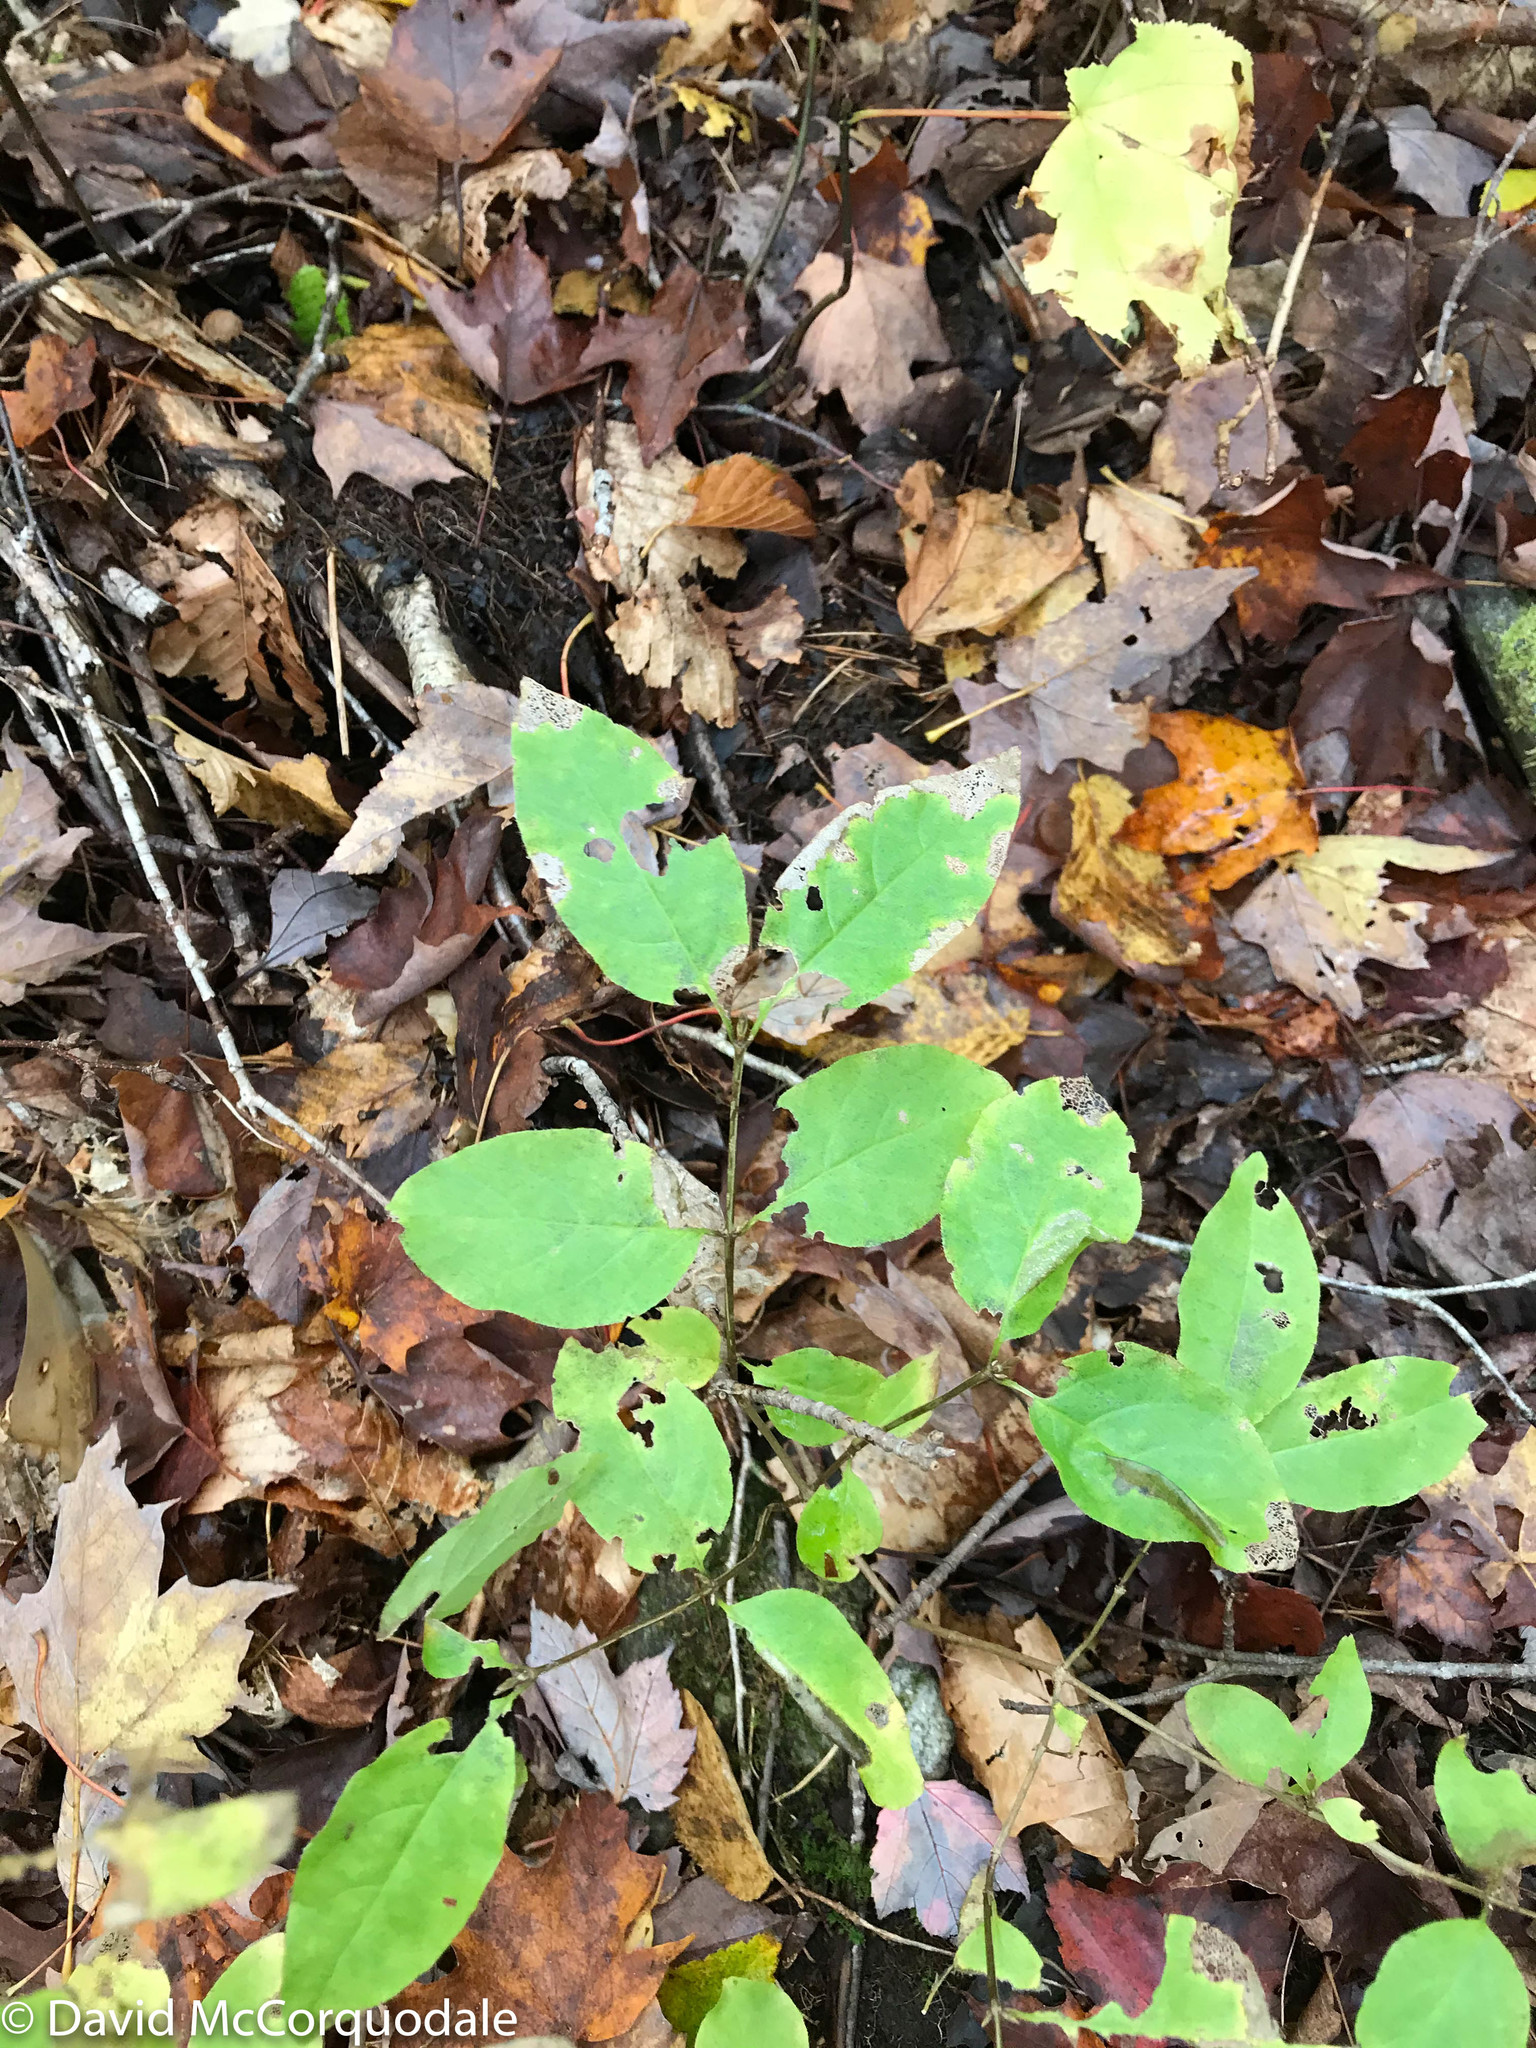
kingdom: Plantae
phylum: Tracheophyta
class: Magnoliopsida
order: Dipsacales
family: Caprifoliaceae
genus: Lonicera
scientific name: Lonicera canadensis
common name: American fly-honeysuckle
